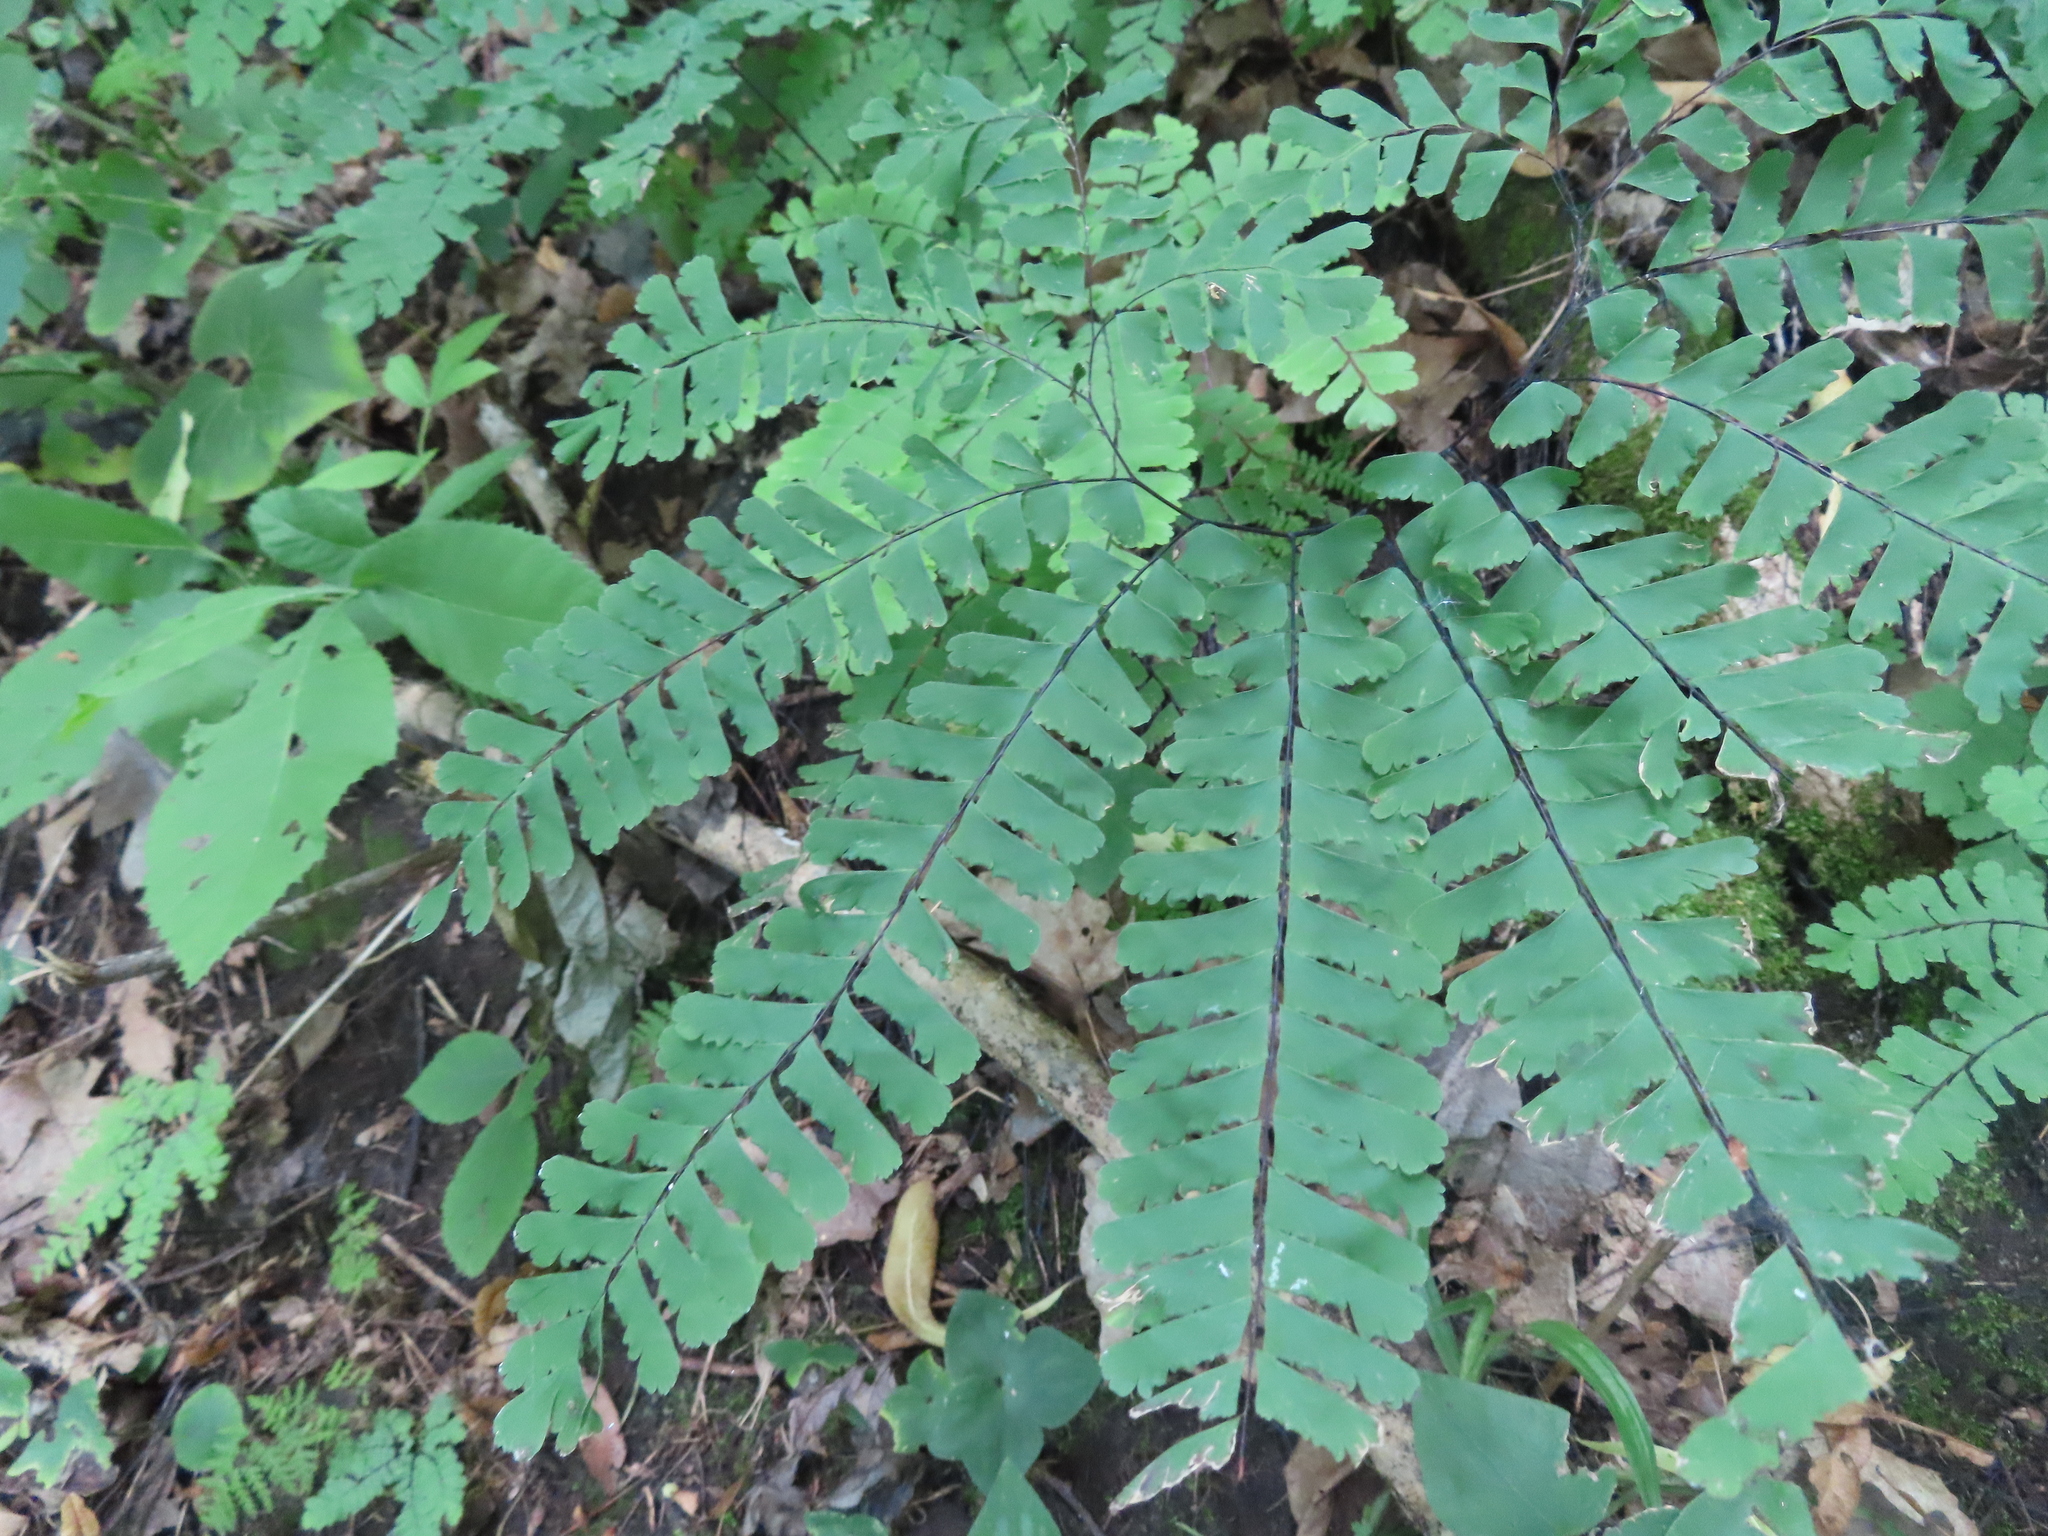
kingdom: Plantae
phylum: Tracheophyta
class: Polypodiopsida
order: Polypodiales
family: Pteridaceae
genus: Adiantum
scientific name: Adiantum pedatum
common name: Five-finger fern
